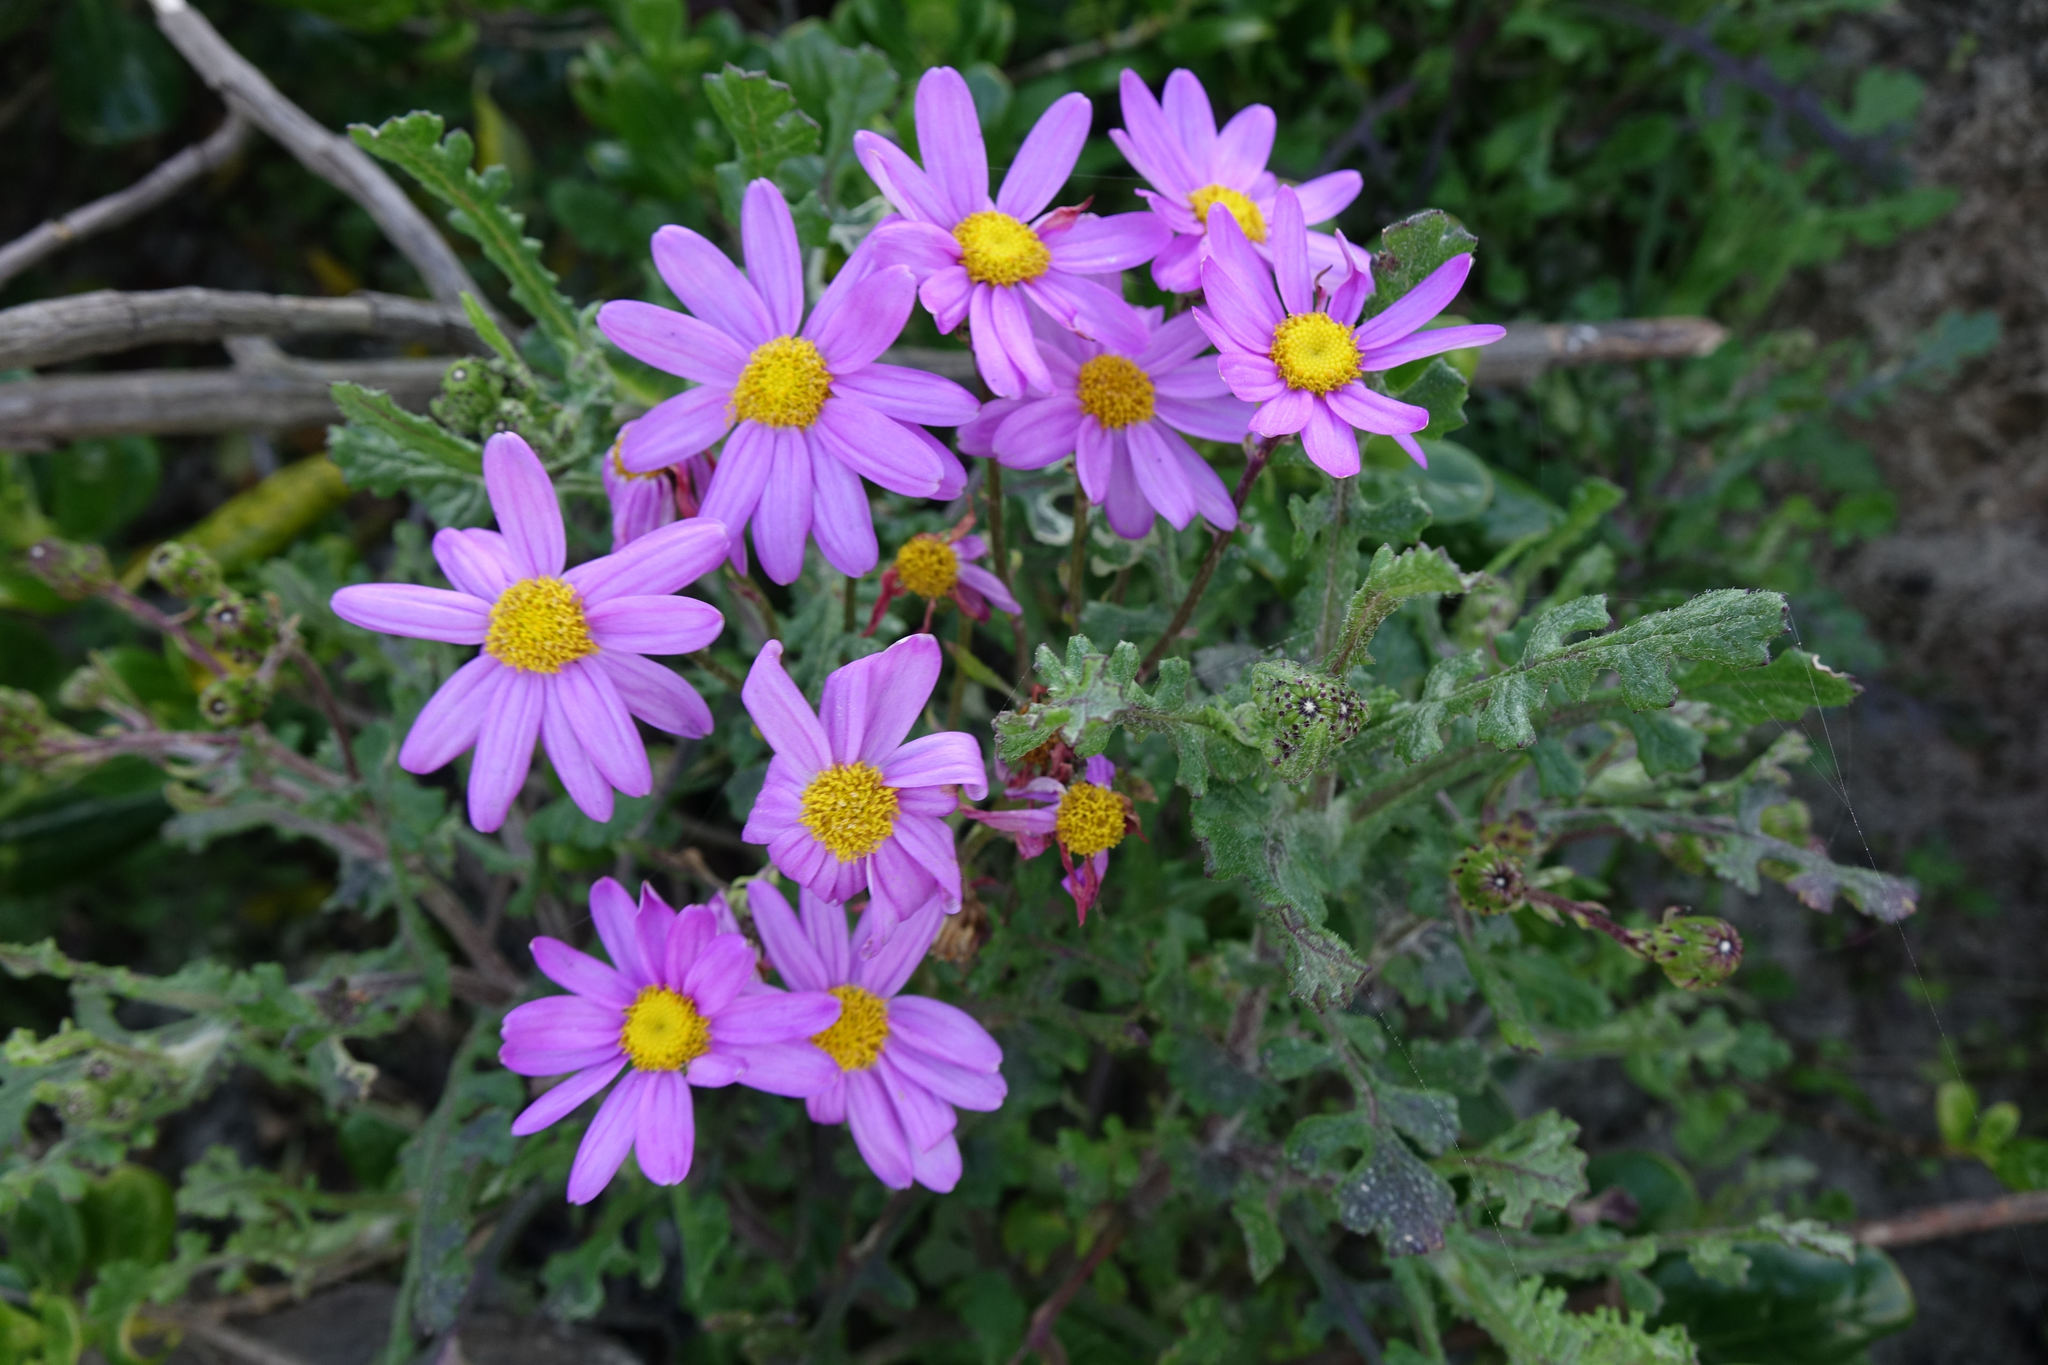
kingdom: Plantae
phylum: Tracheophyta
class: Magnoliopsida
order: Asterales
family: Asteraceae
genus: Senecio
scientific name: Senecio elegans
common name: Purple groundsel
